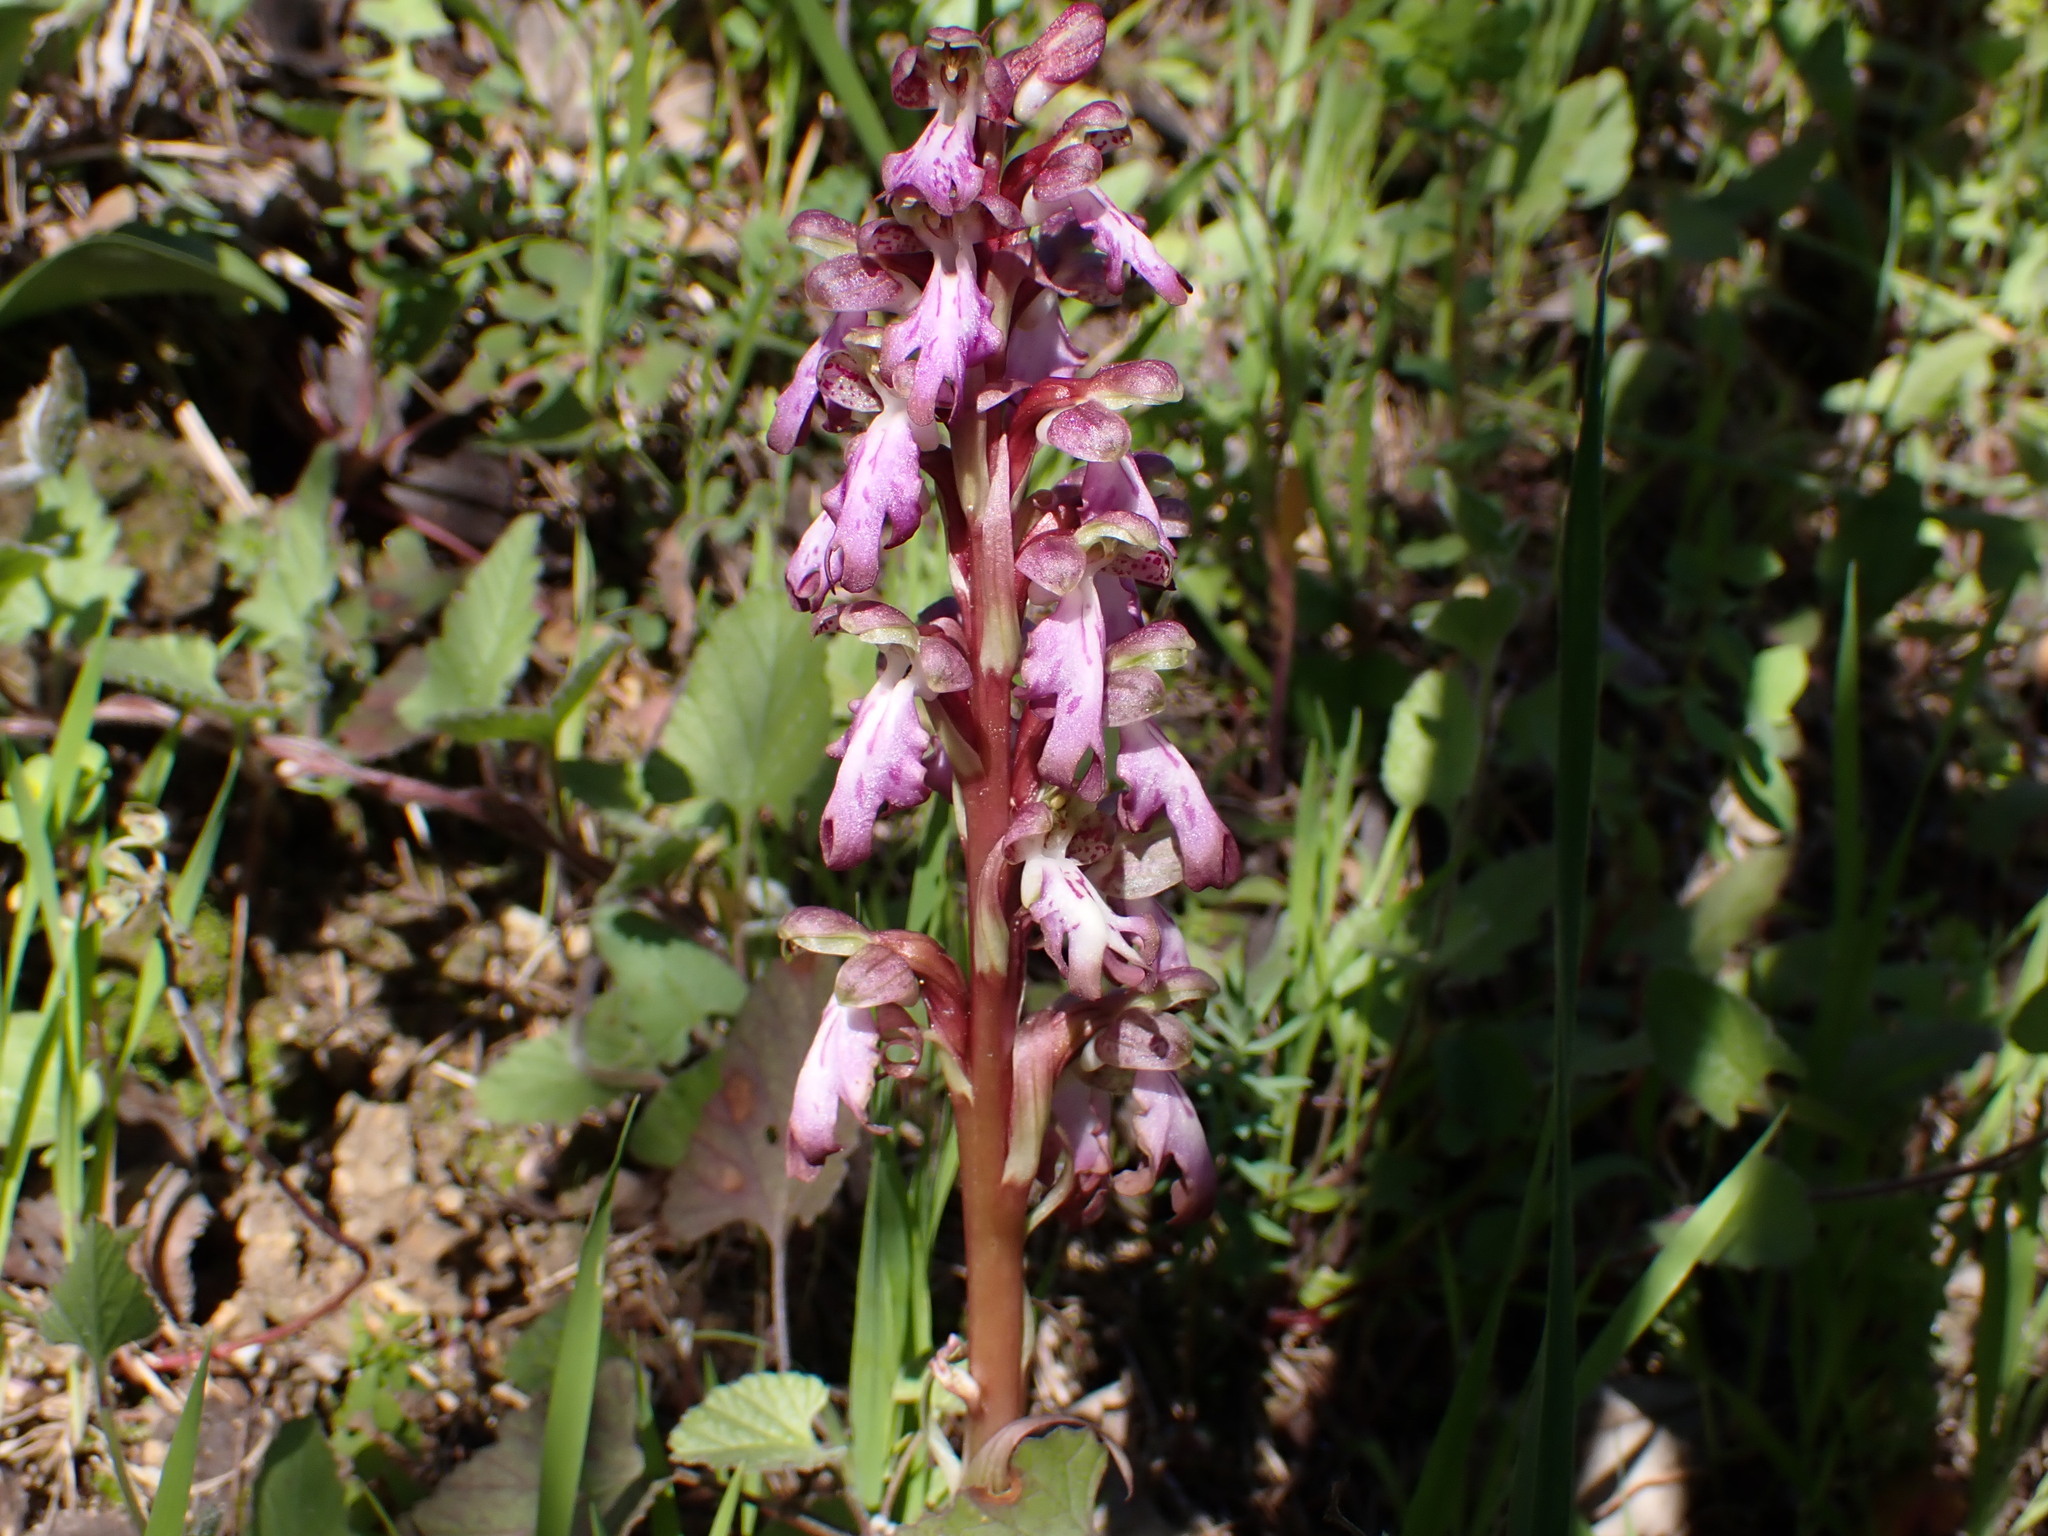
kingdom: Plantae
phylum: Tracheophyta
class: Liliopsida
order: Asparagales
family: Orchidaceae
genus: Himantoglossum
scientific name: Himantoglossum robertianum
